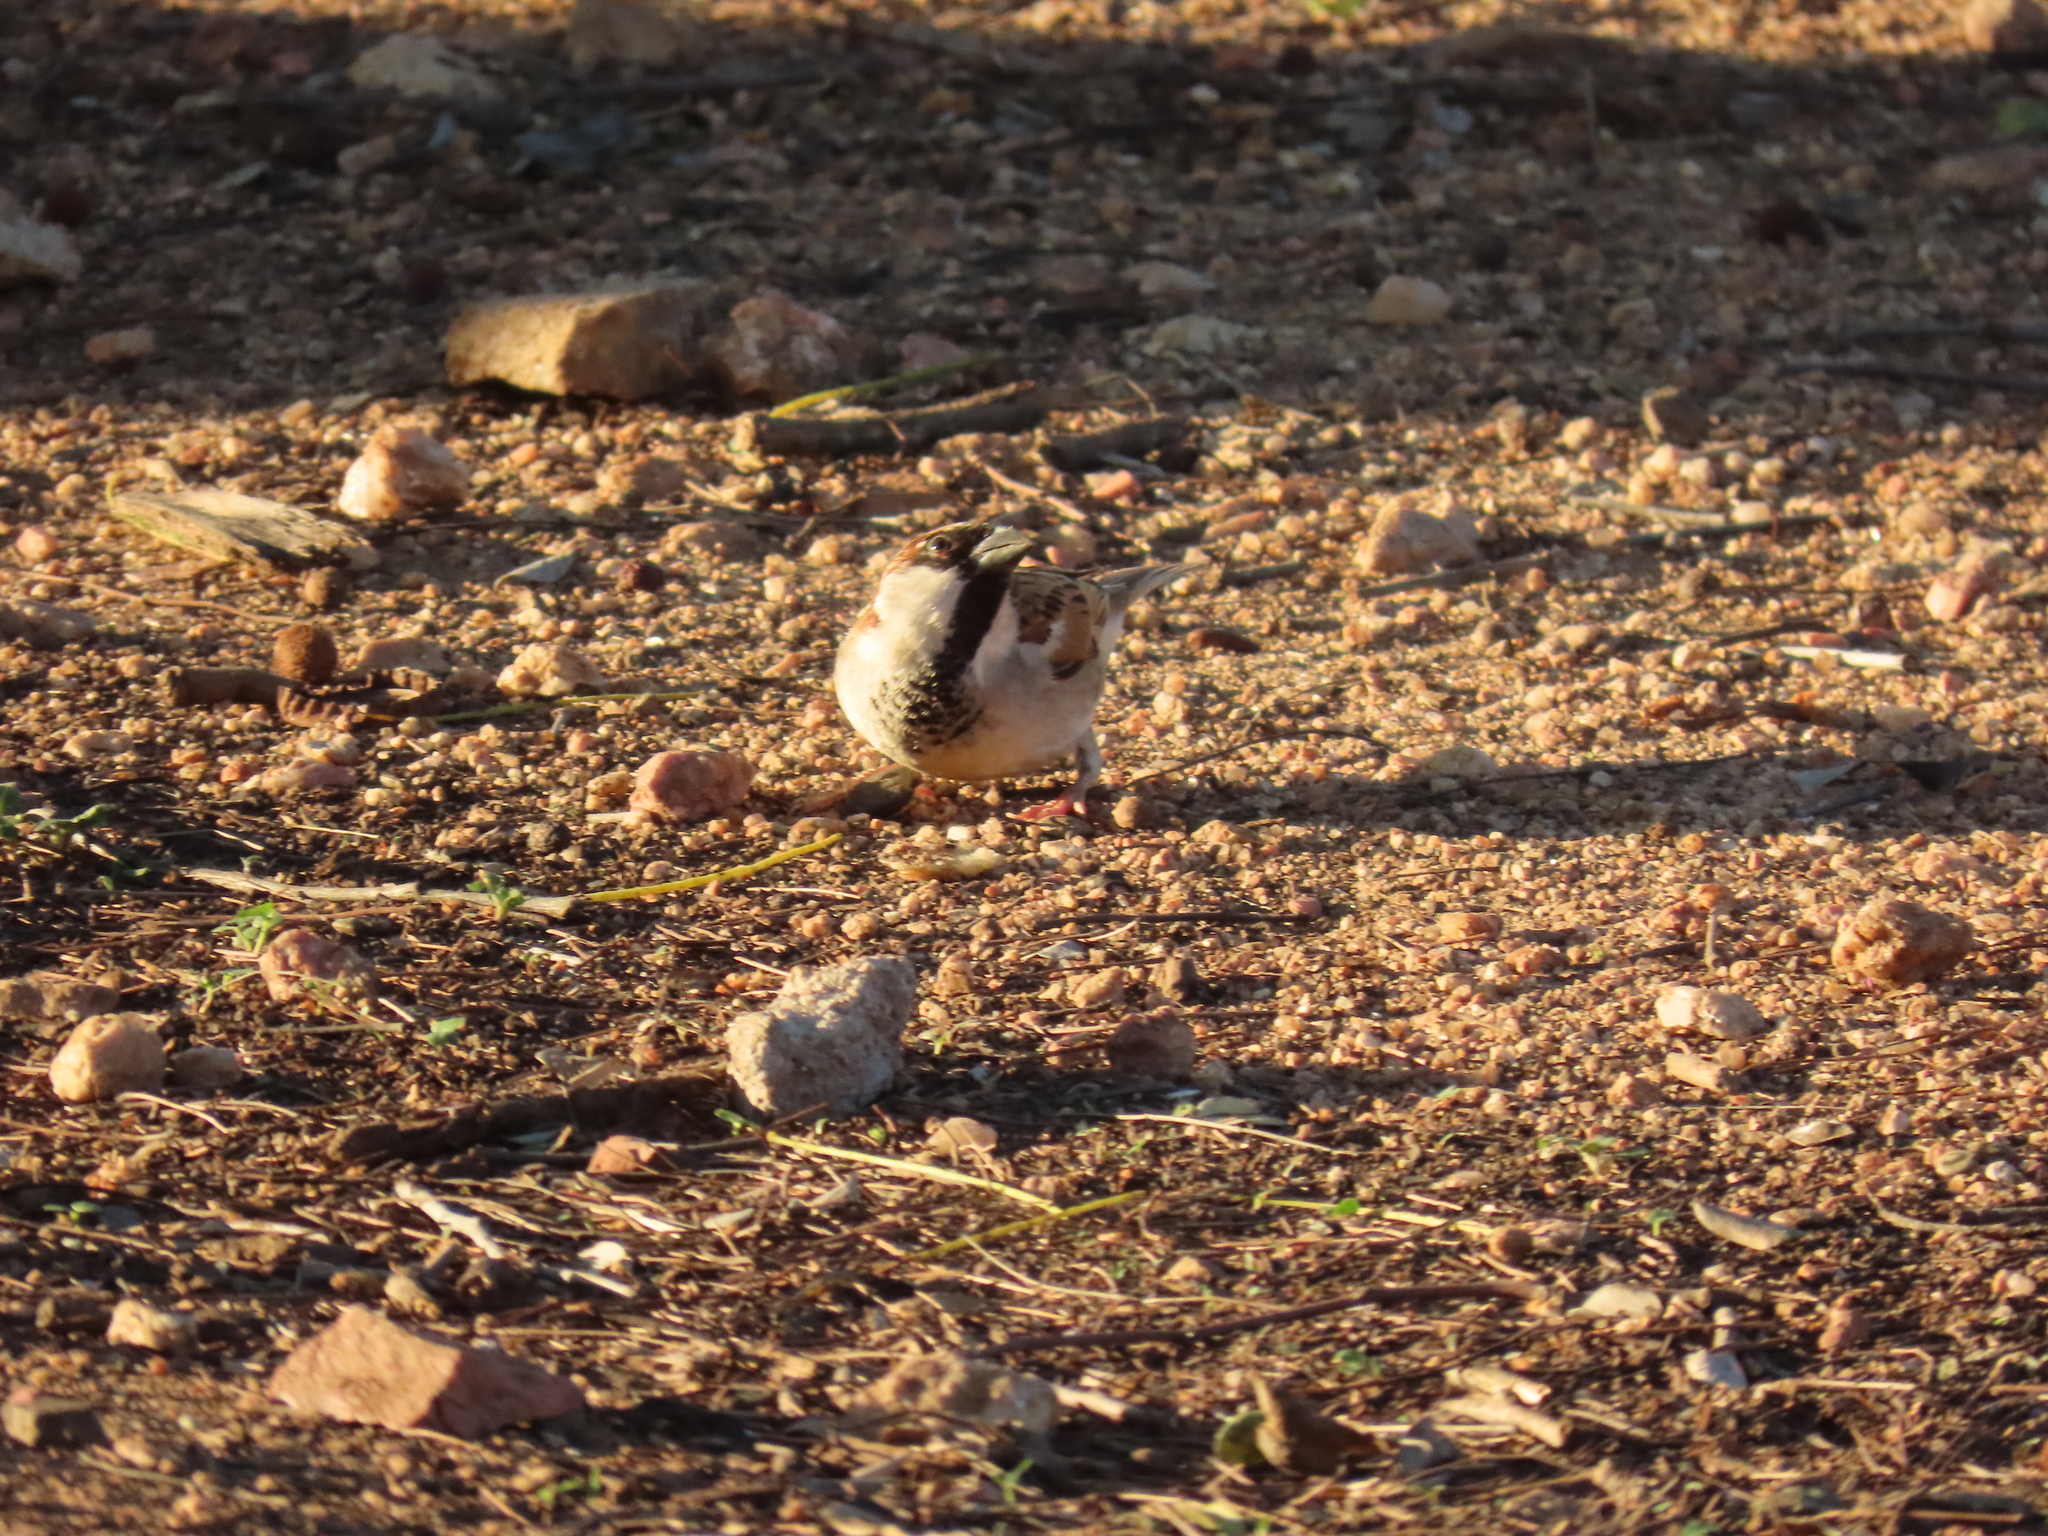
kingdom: Animalia
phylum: Chordata
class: Aves
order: Passeriformes
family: Passeridae
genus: Passer
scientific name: Passer domesticus
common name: House sparrow
